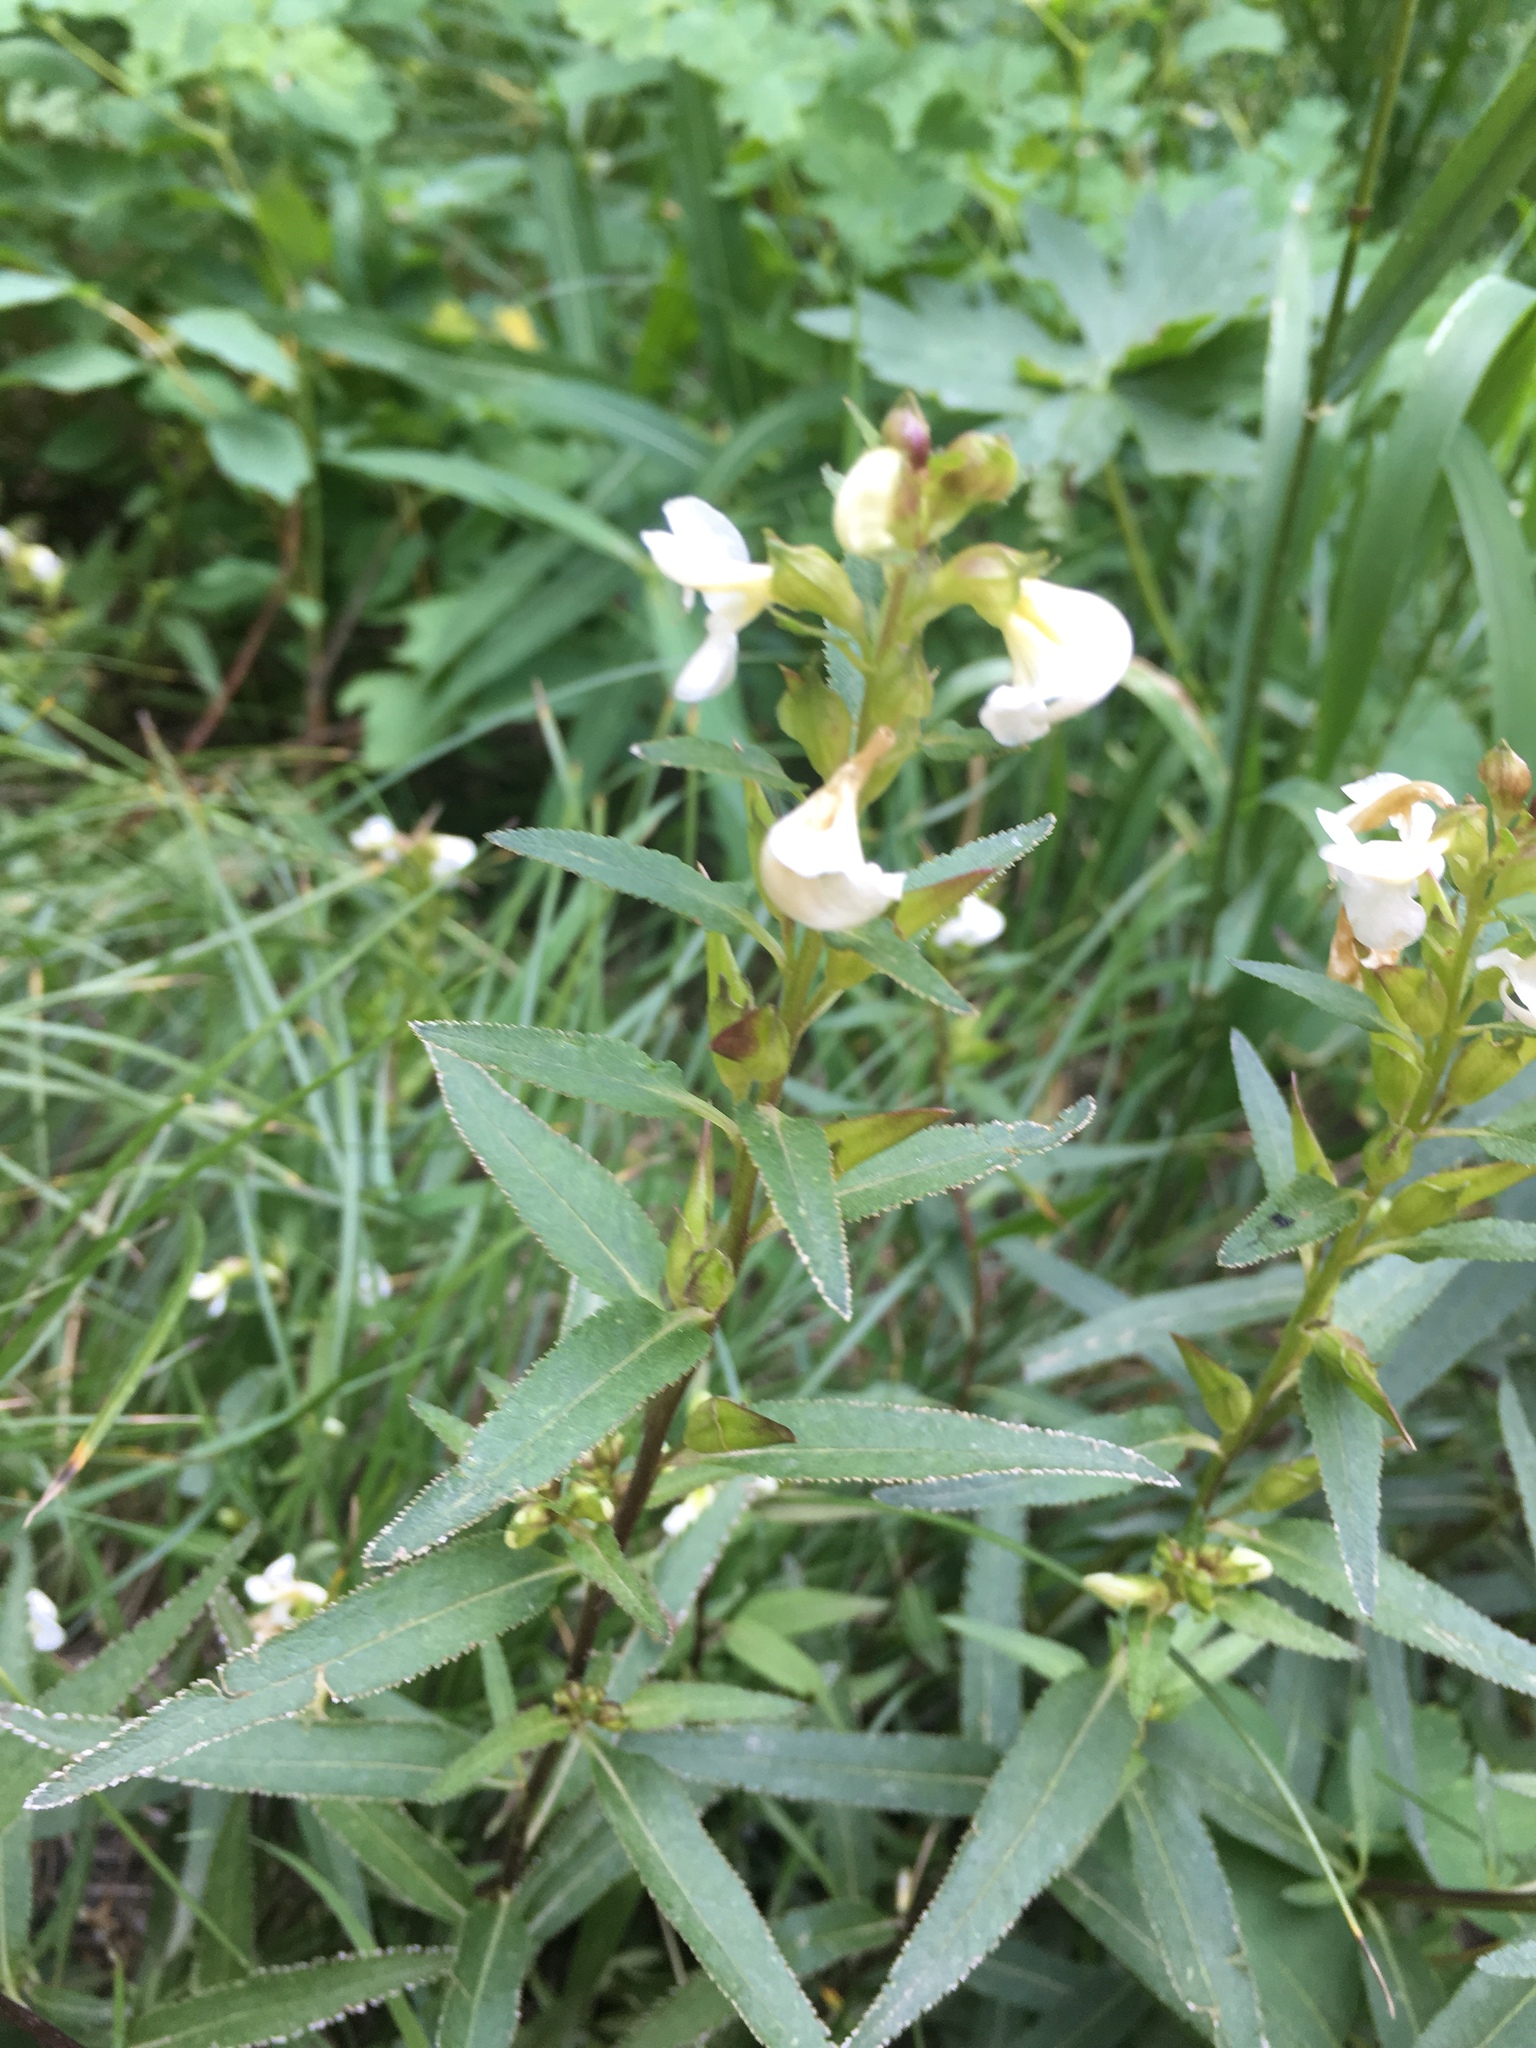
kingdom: Plantae
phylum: Tracheophyta
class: Magnoliopsida
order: Lamiales
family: Orobanchaceae
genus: Pedicularis
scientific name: Pedicularis racemosa
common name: Leafy lousewort
